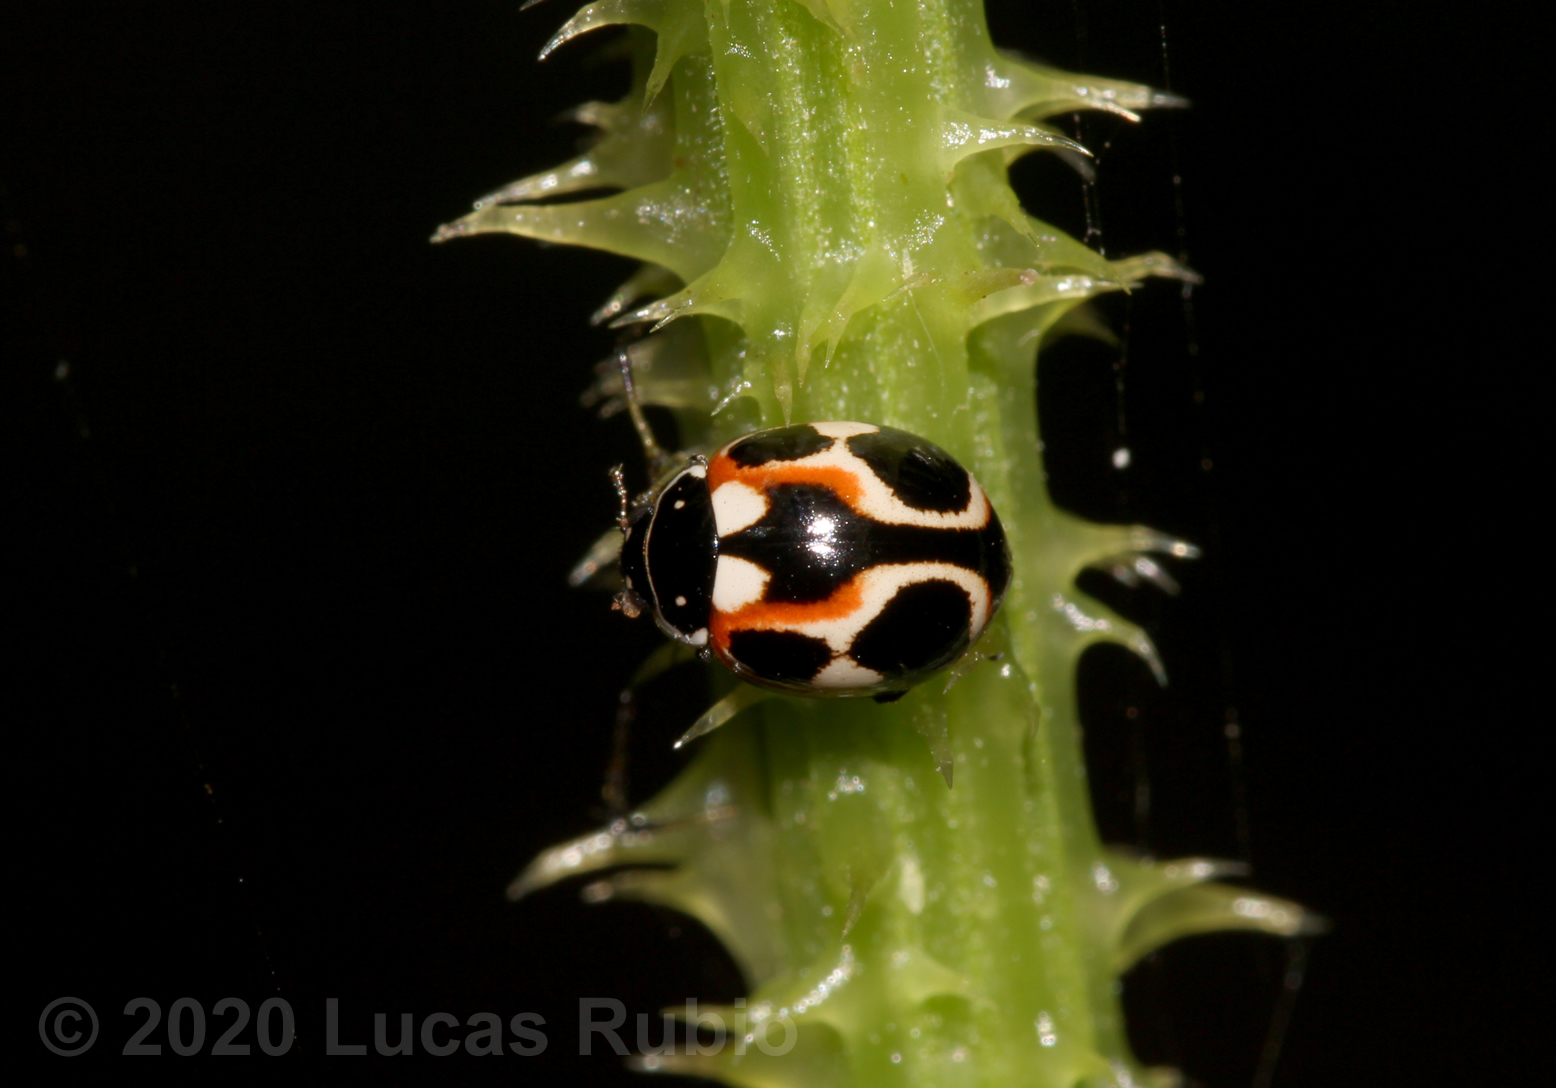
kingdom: Animalia
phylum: Arthropoda
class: Insecta
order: Coleoptera
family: Coccinellidae
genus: Cycloneda
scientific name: Cycloneda ancoralis
